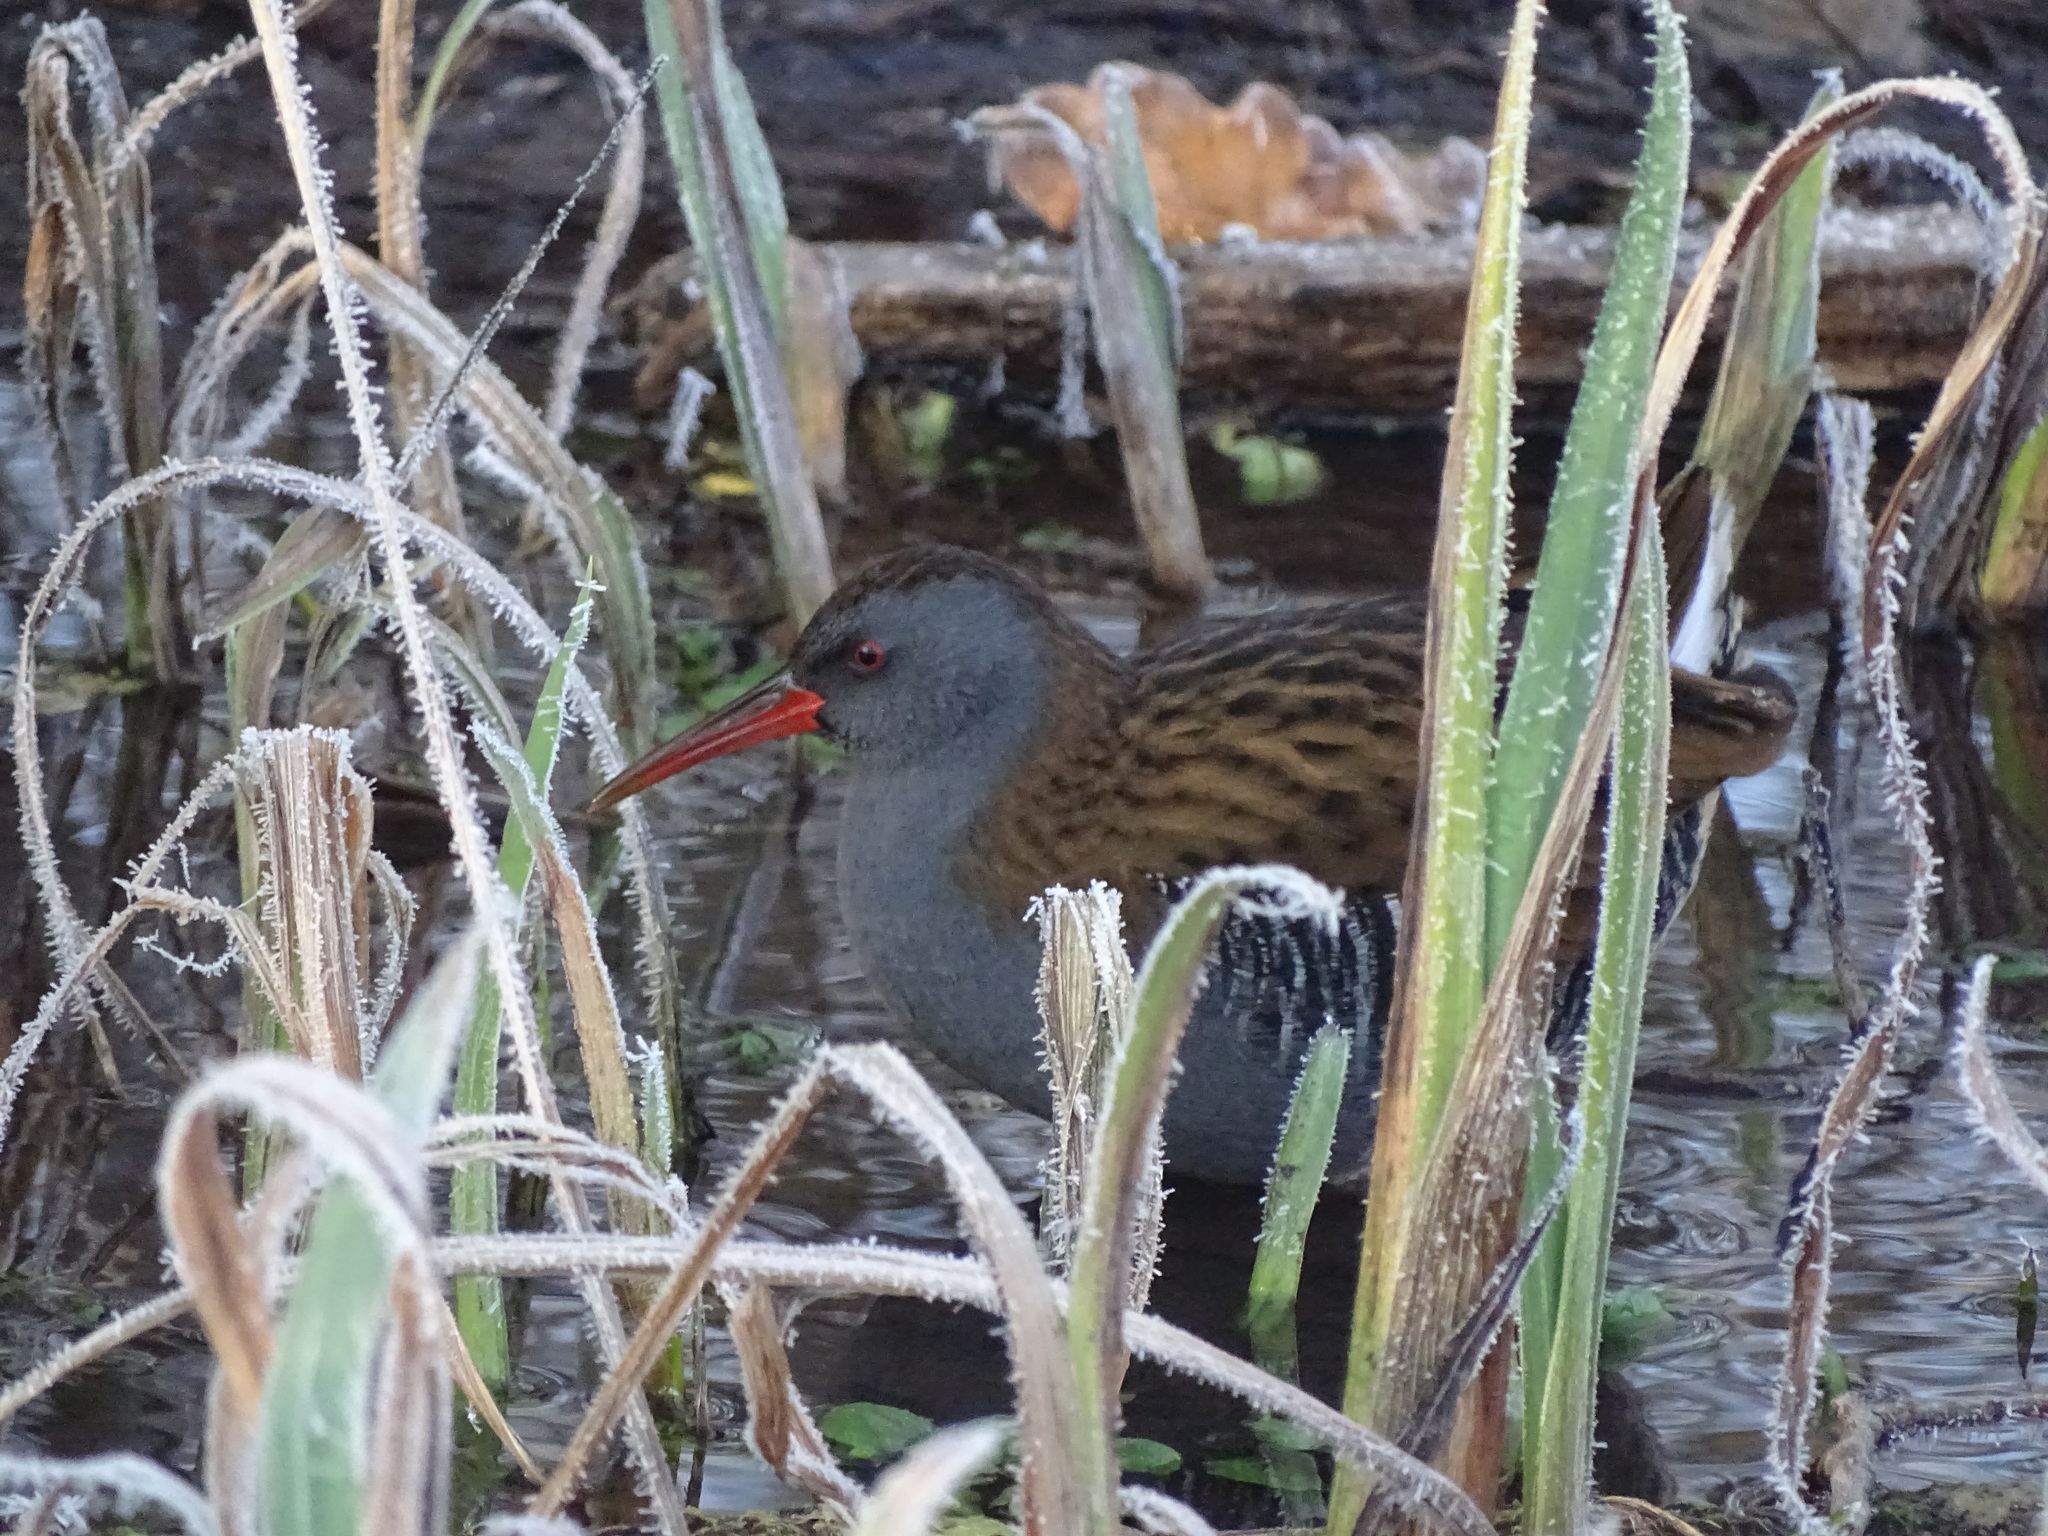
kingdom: Animalia
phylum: Chordata
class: Aves
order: Gruiformes
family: Rallidae
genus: Rallus
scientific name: Rallus aquaticus
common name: Water rail
